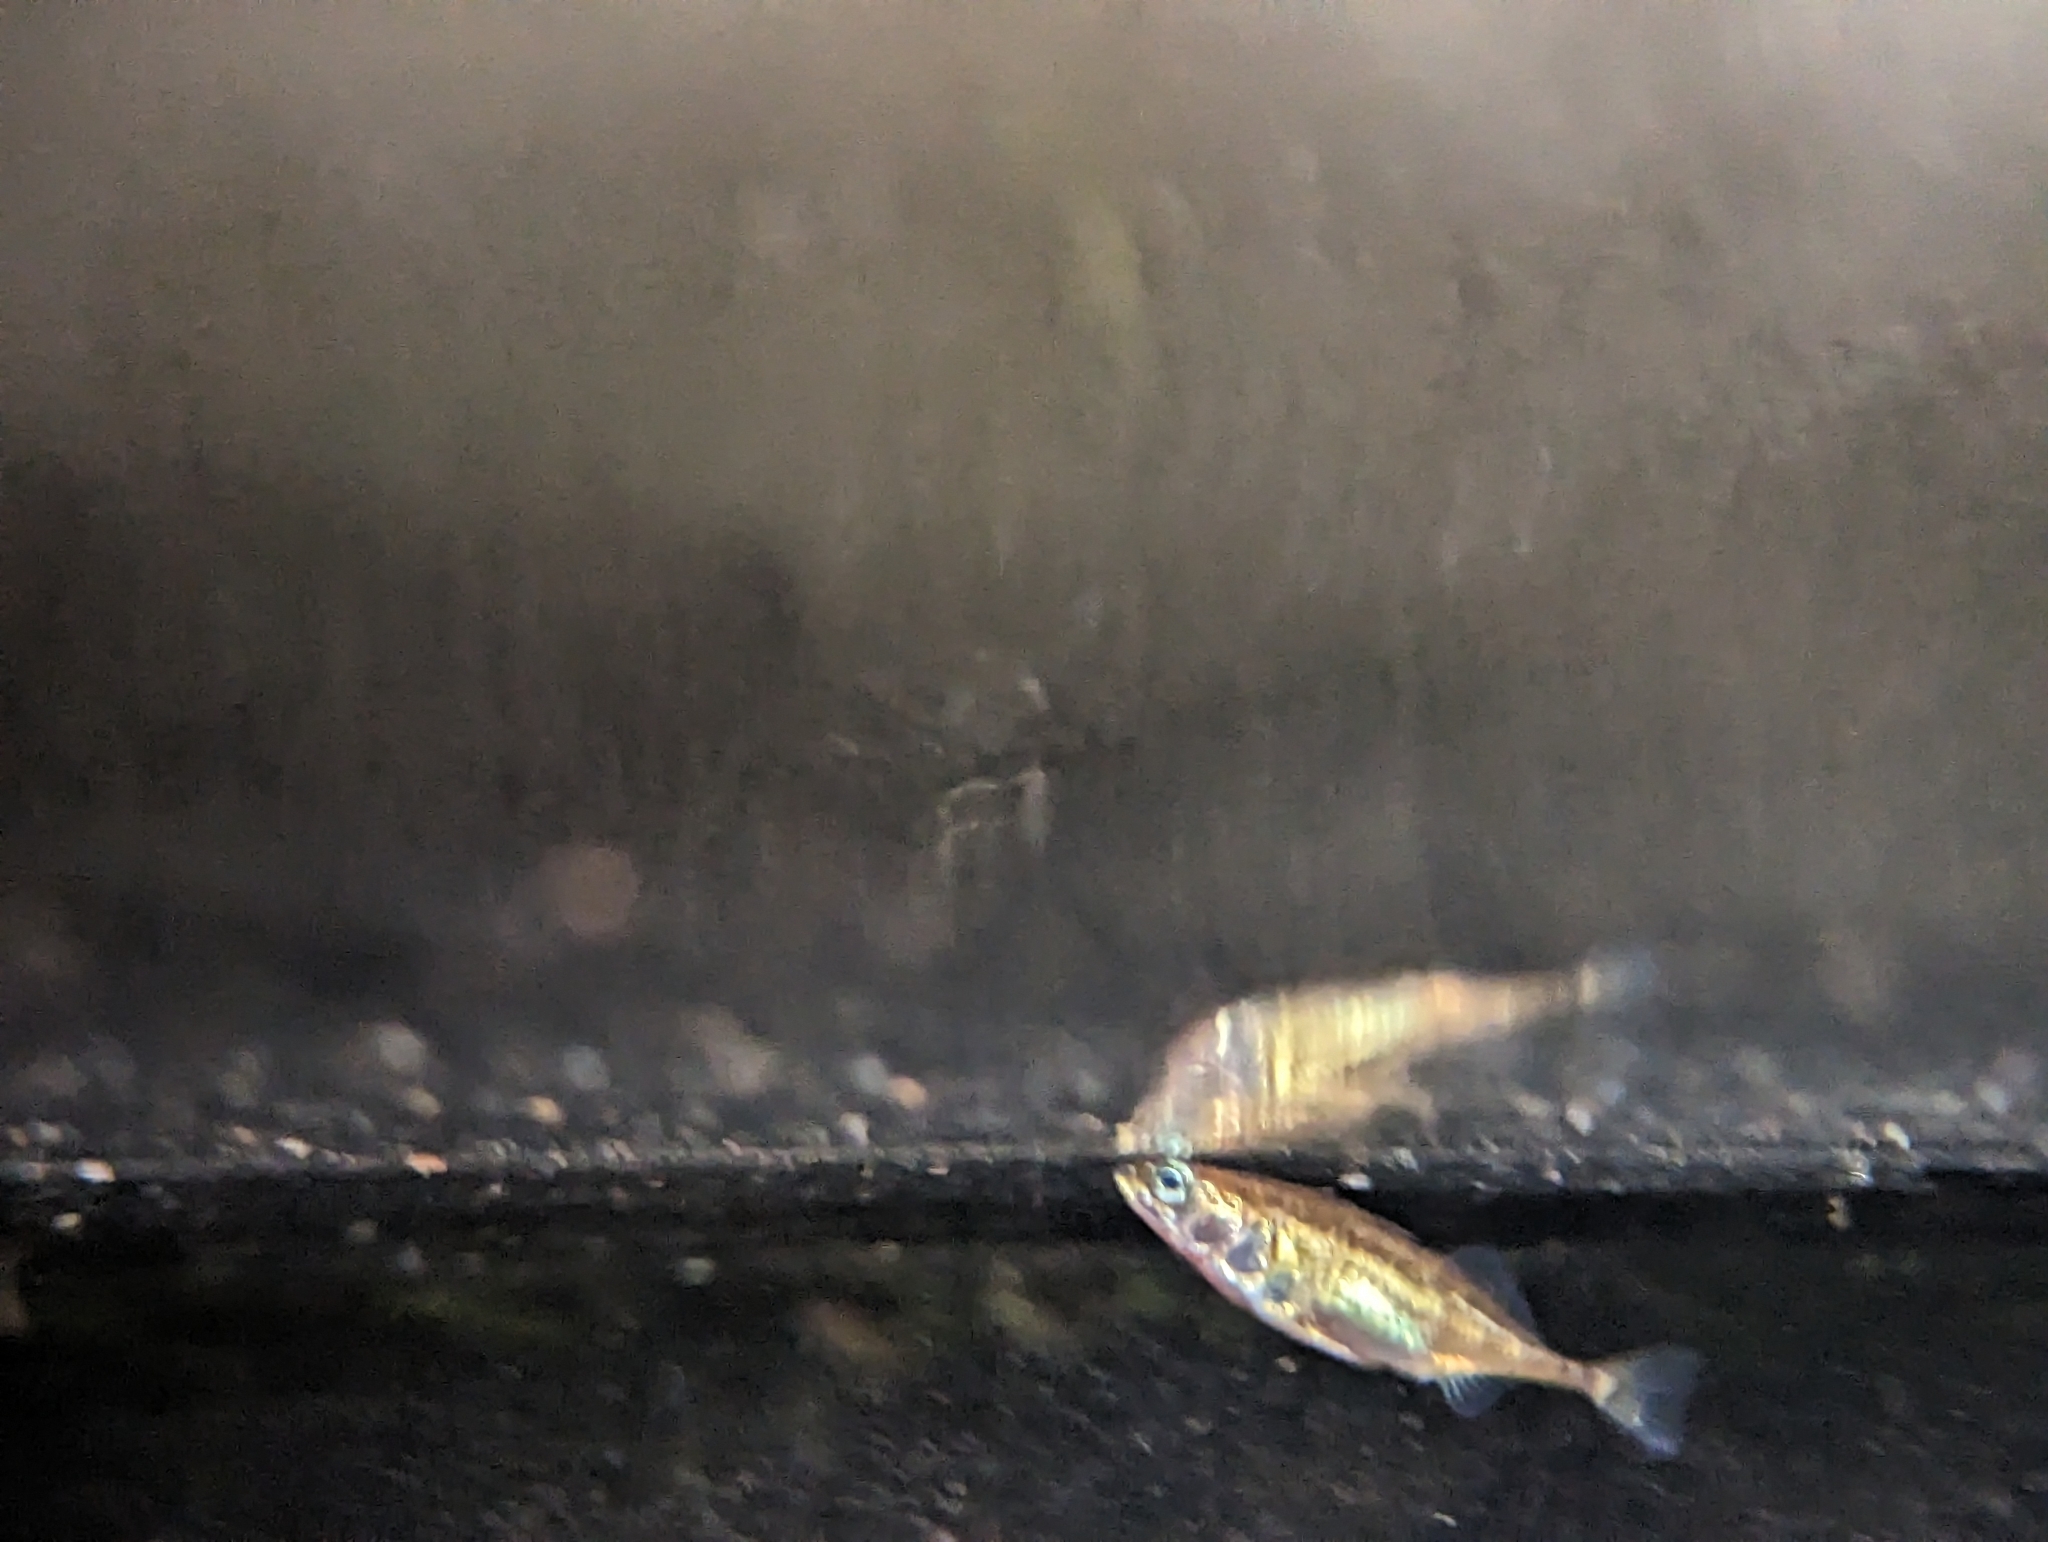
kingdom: Animalia
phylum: Chordata
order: Gasterosteiformes
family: Gasterosteidae
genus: Gasterosteus
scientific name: Gasterosteus aculeatus
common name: Three-spined stickleback
